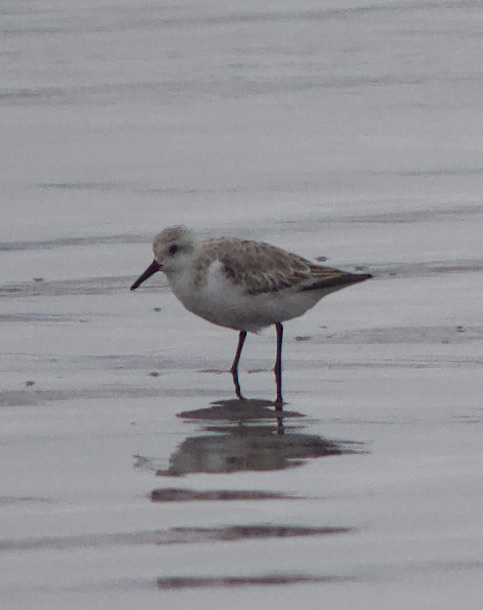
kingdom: Animalia
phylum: Chordata
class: Aves
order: Charadriiformes
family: Scolopacidae
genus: Calidris
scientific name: Calidris alba
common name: Sanderling
